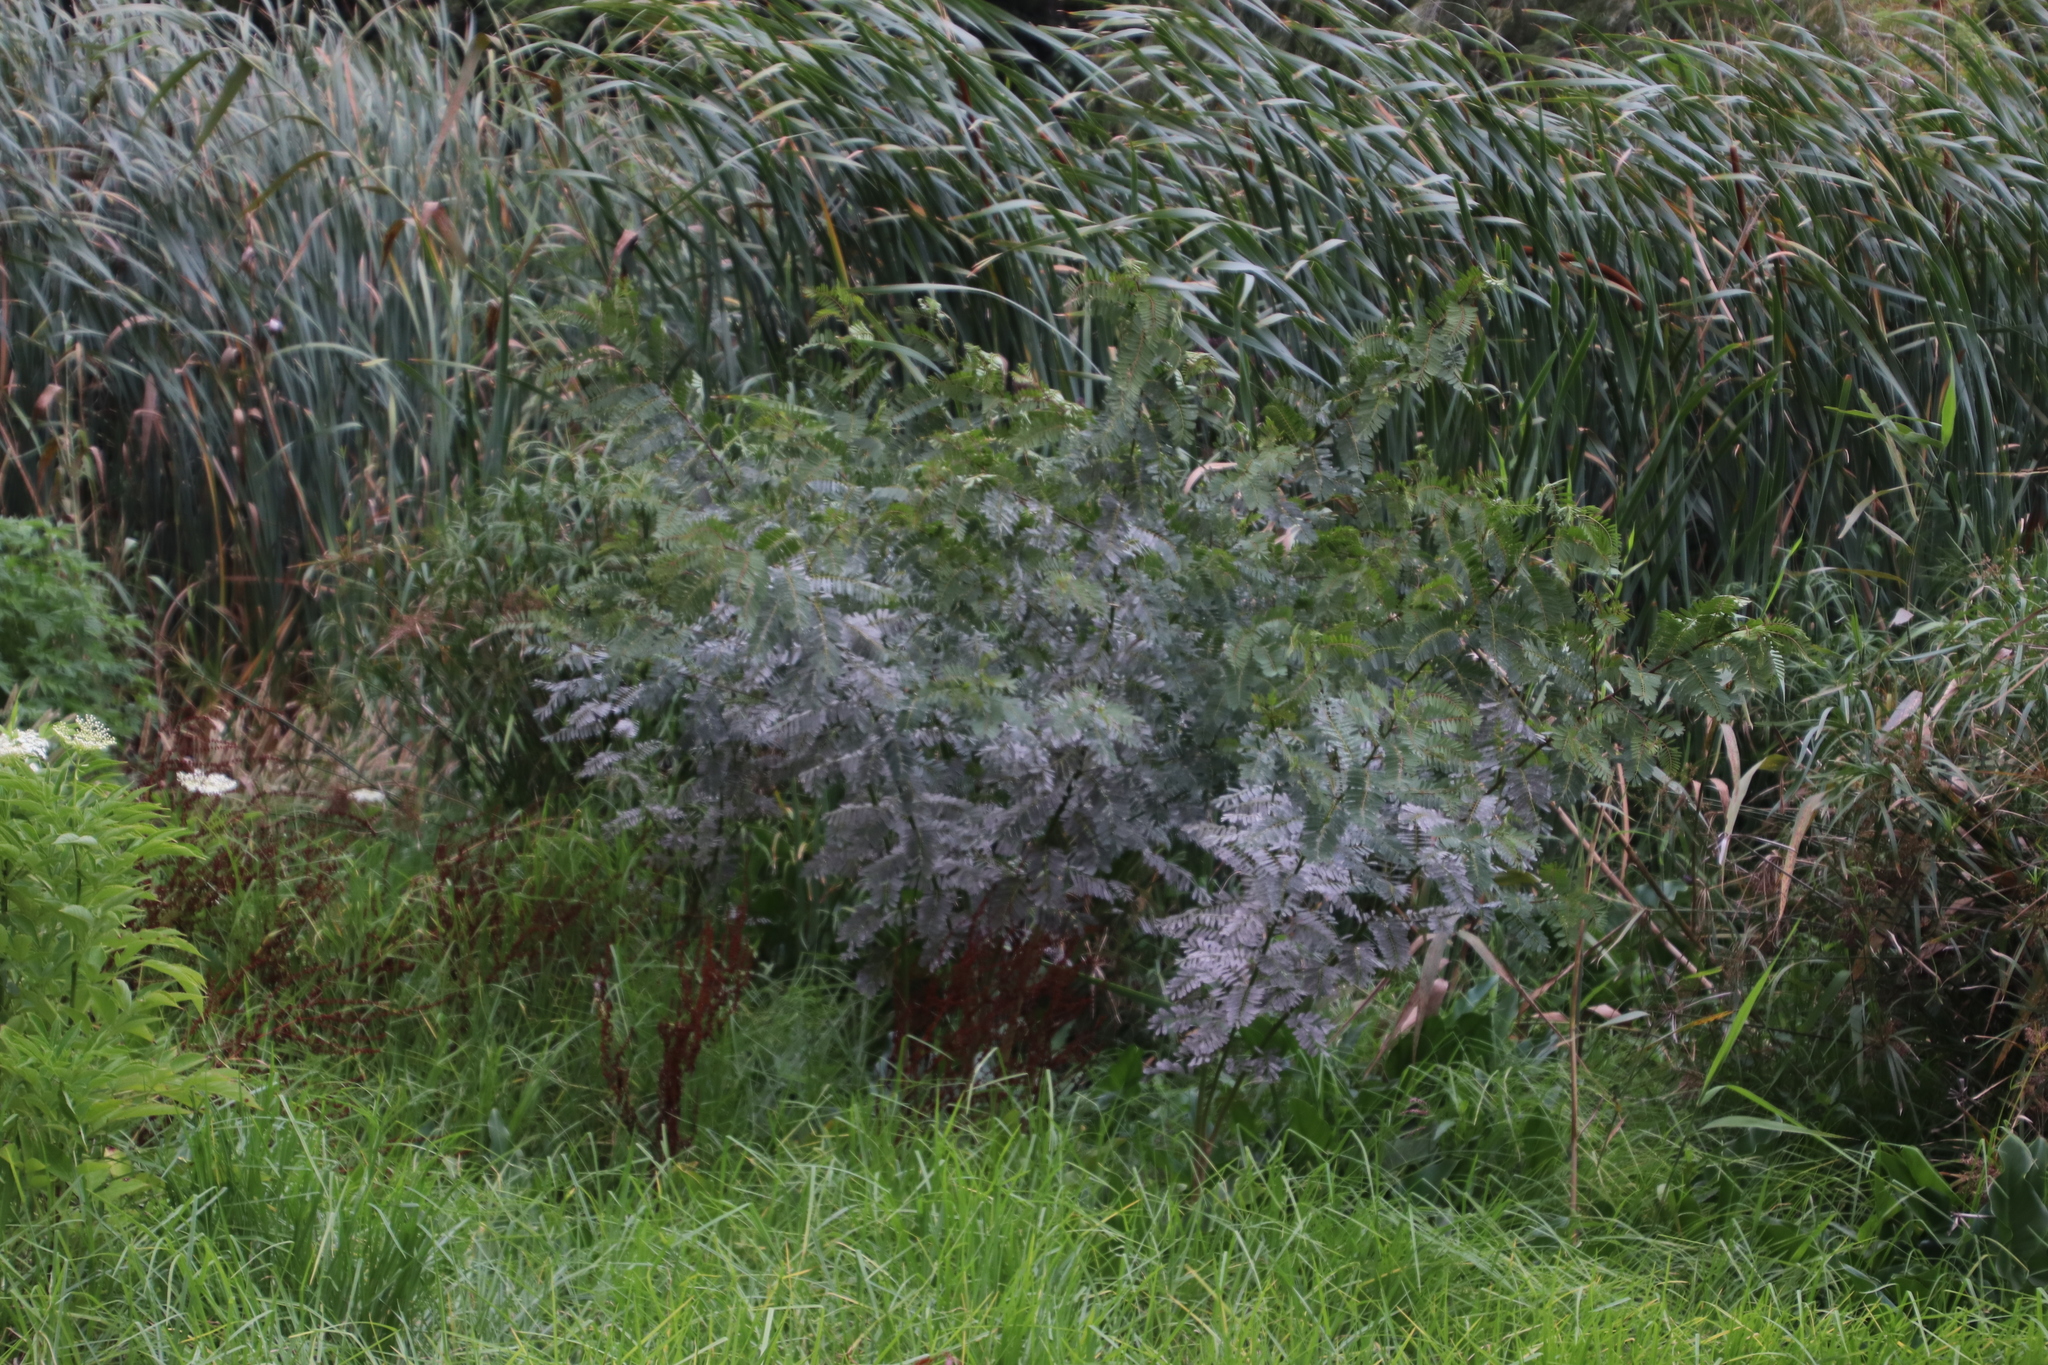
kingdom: Plantae
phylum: Tracheophyta
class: Magnoliopsida
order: Fabales
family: Fabaceae
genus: Sesbania
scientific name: Sesbania punicea
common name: Rattlebox
